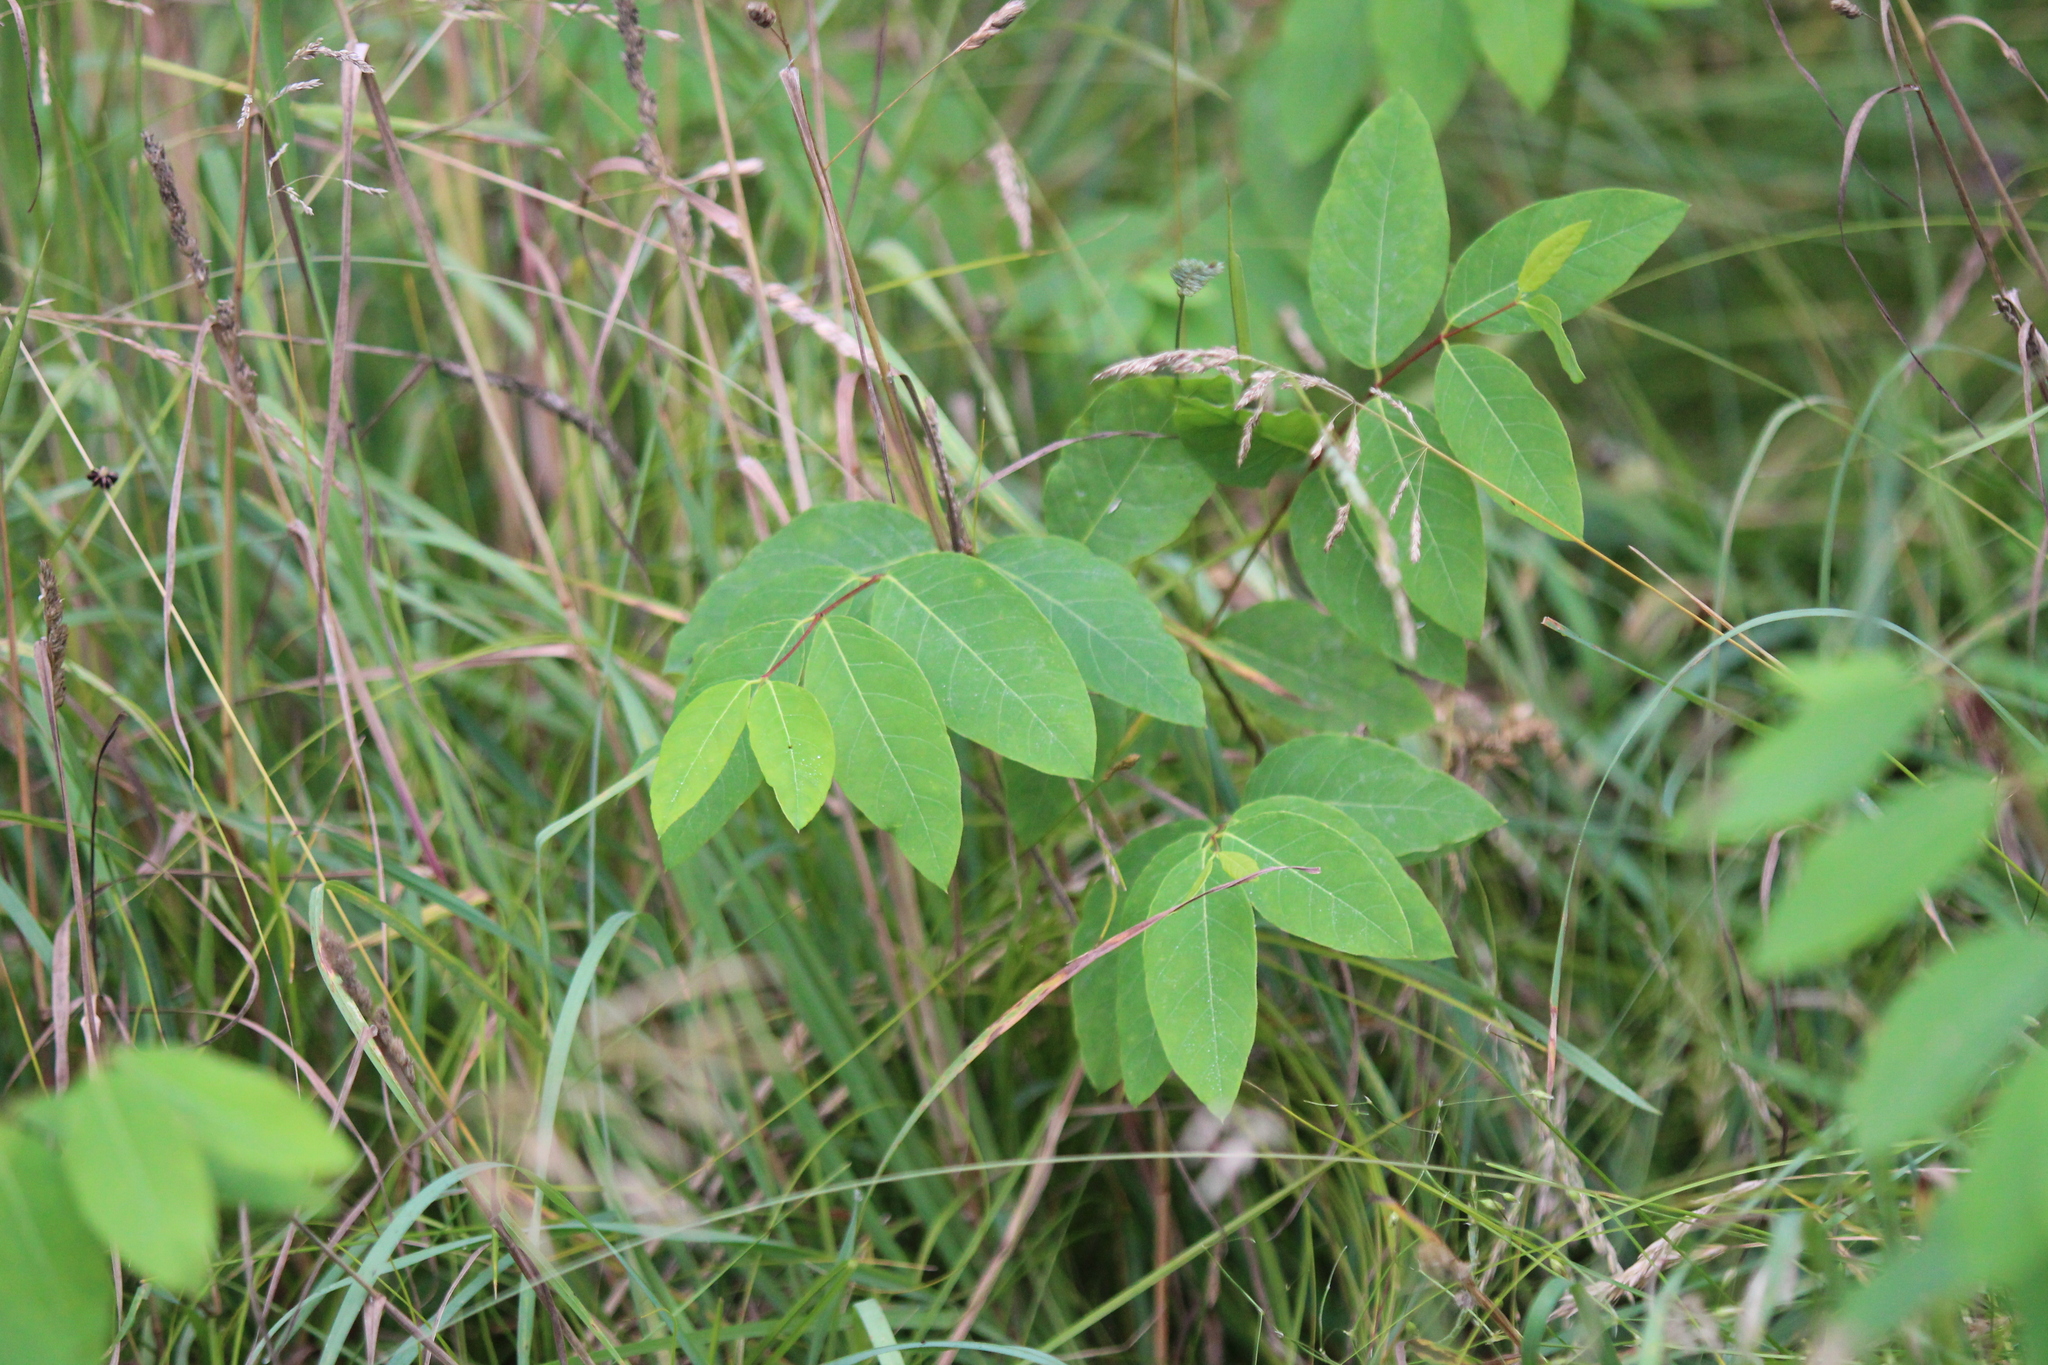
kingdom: Plantae
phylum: Tracheophyta
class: Magnoliopsida
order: Gentianales
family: Apocynaceae
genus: Apocynum
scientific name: Apocynum androsaemifolium
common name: Spreading dogbane
